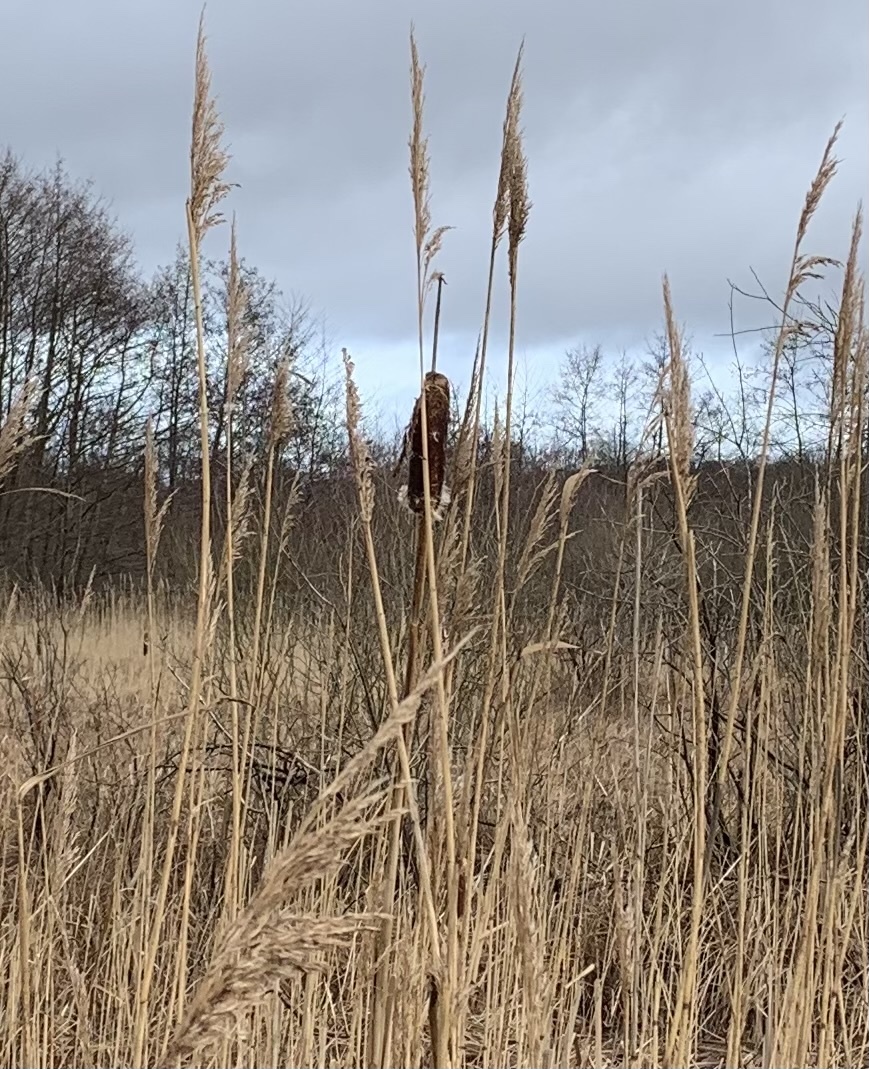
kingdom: Plantae
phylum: Tracheophyta
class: Liliopsida
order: Poales
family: Typhaceae
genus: Typha
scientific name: Typha latifolia
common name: Broadleaf cattail
